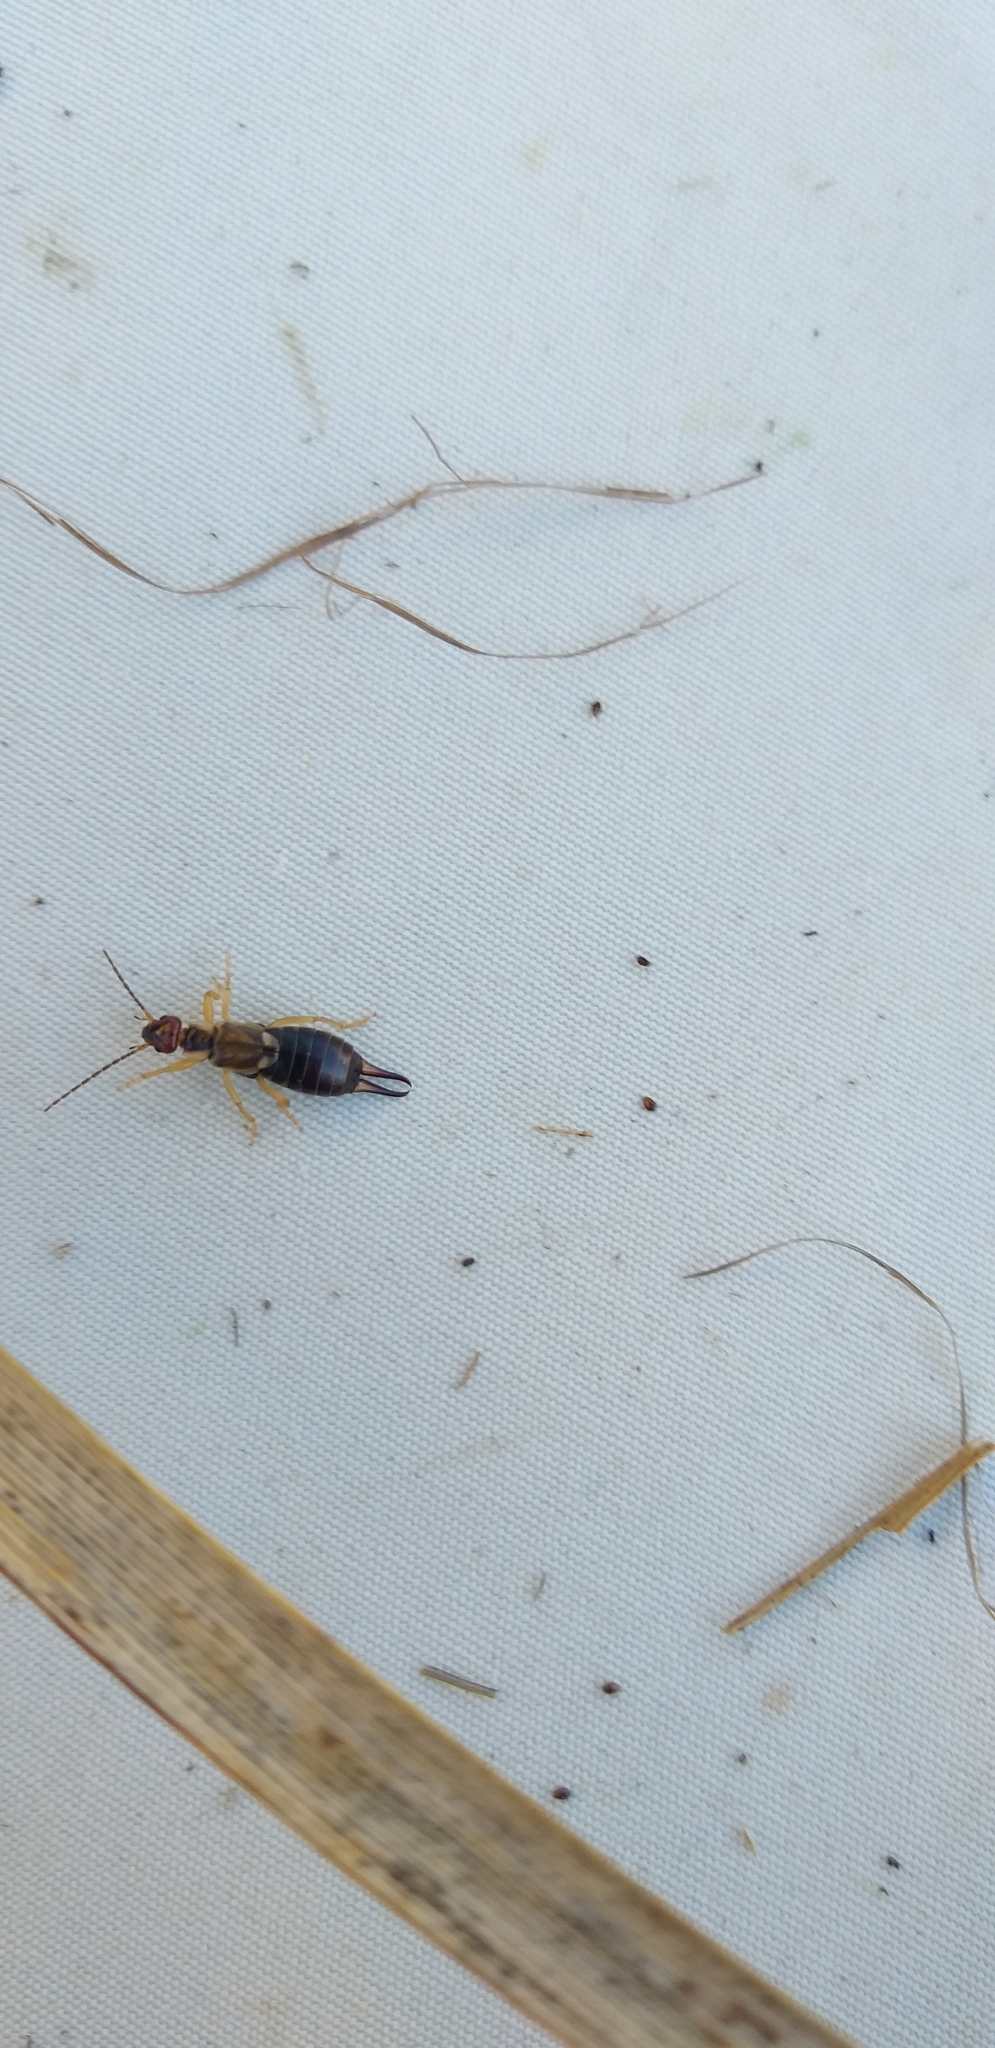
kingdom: Animalia
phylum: Arthropoda
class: Insecta
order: Dermaptera
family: Forficulidae
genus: Forficula
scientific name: Forficula
